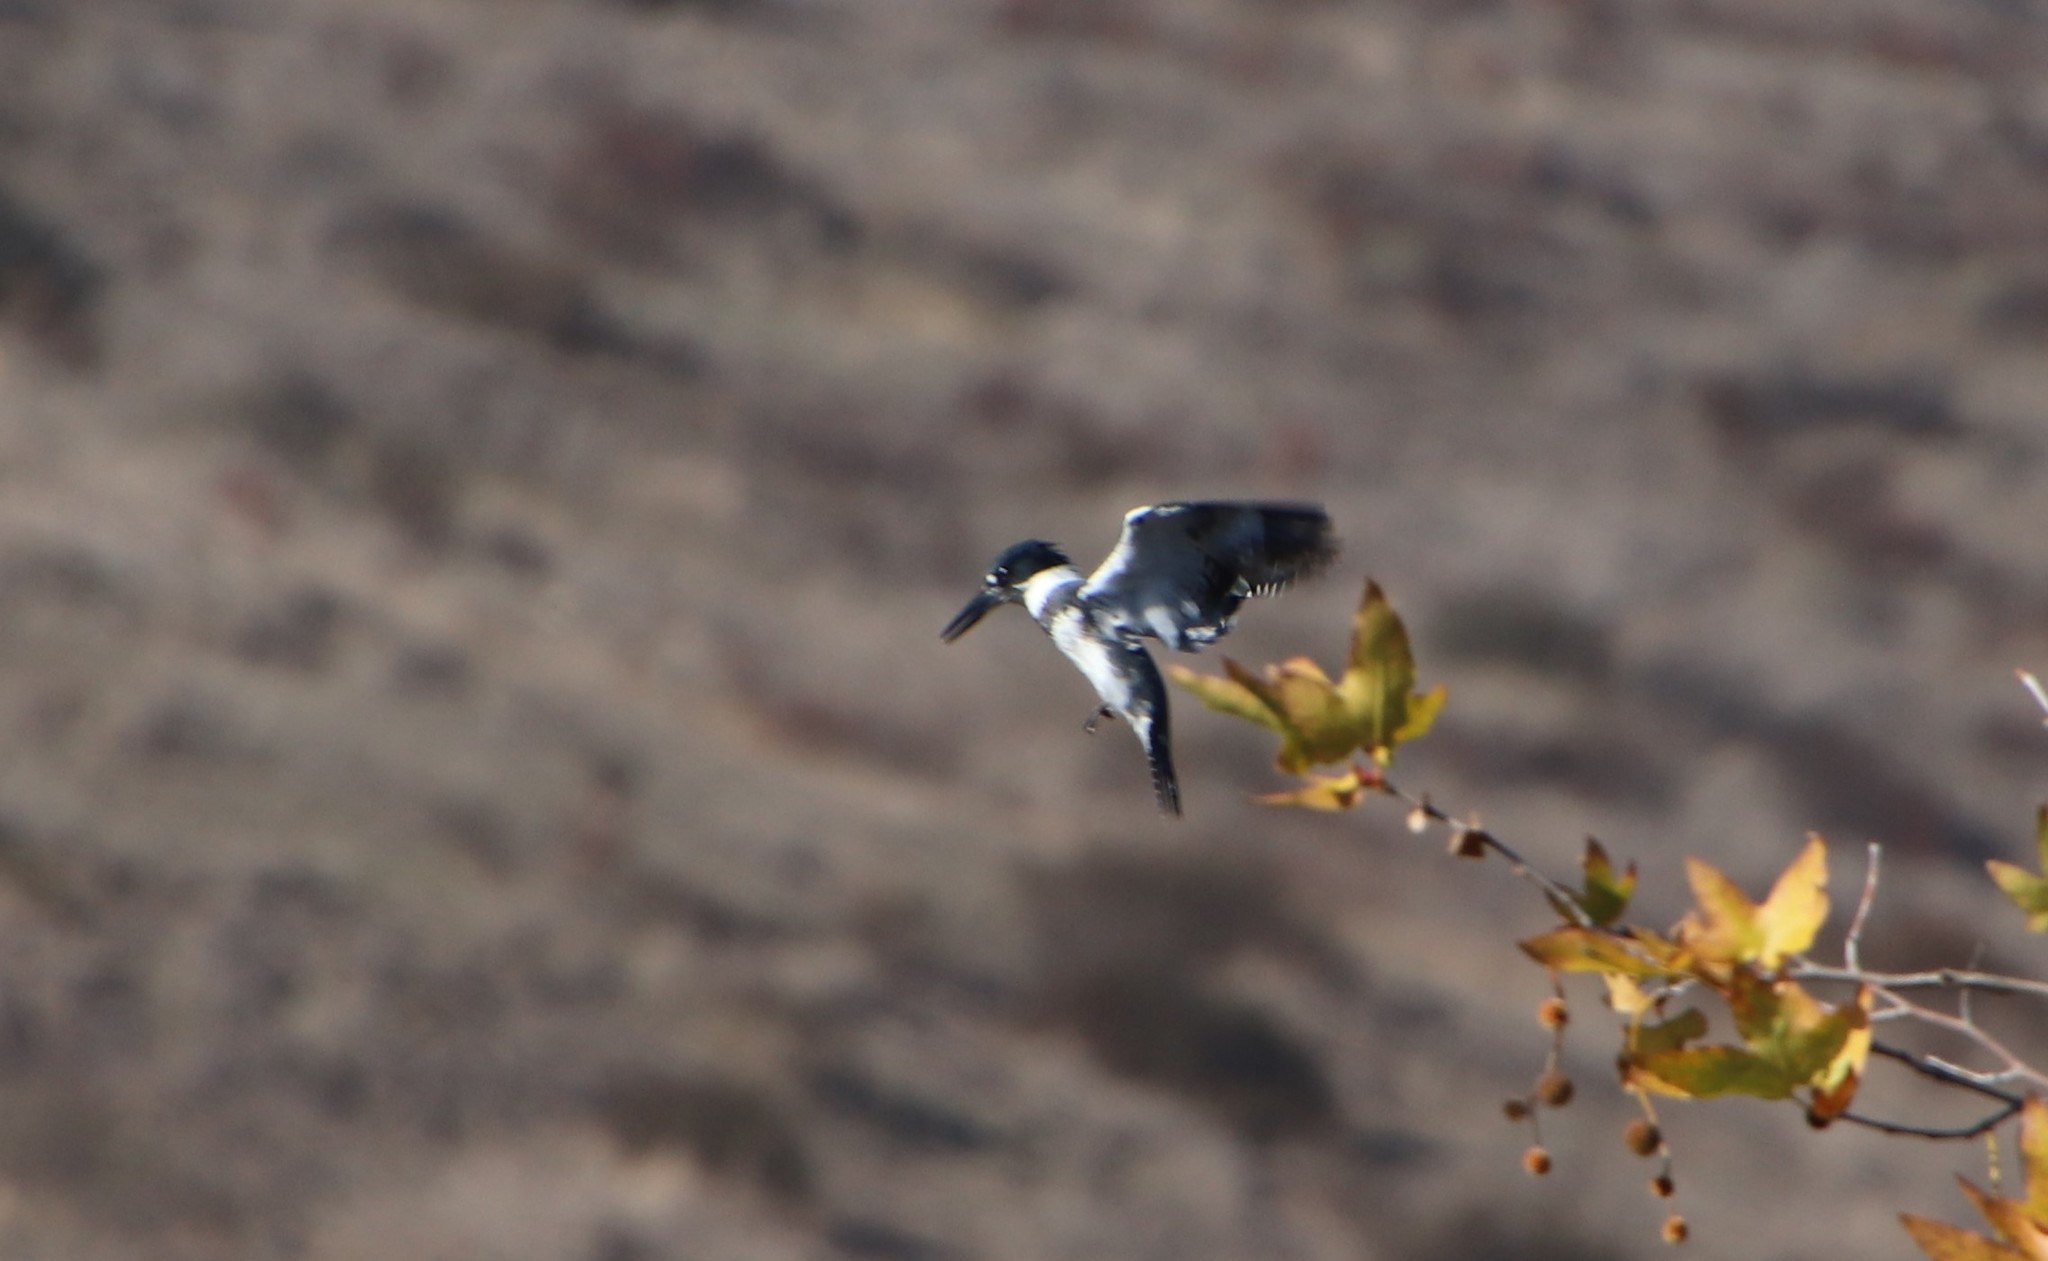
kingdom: Animalia
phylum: Chordata
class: Aves
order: Coraciiformes
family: Alcedinidae
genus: Megaceryle
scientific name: Megaceryle alcyon
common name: Belted kingfisher
